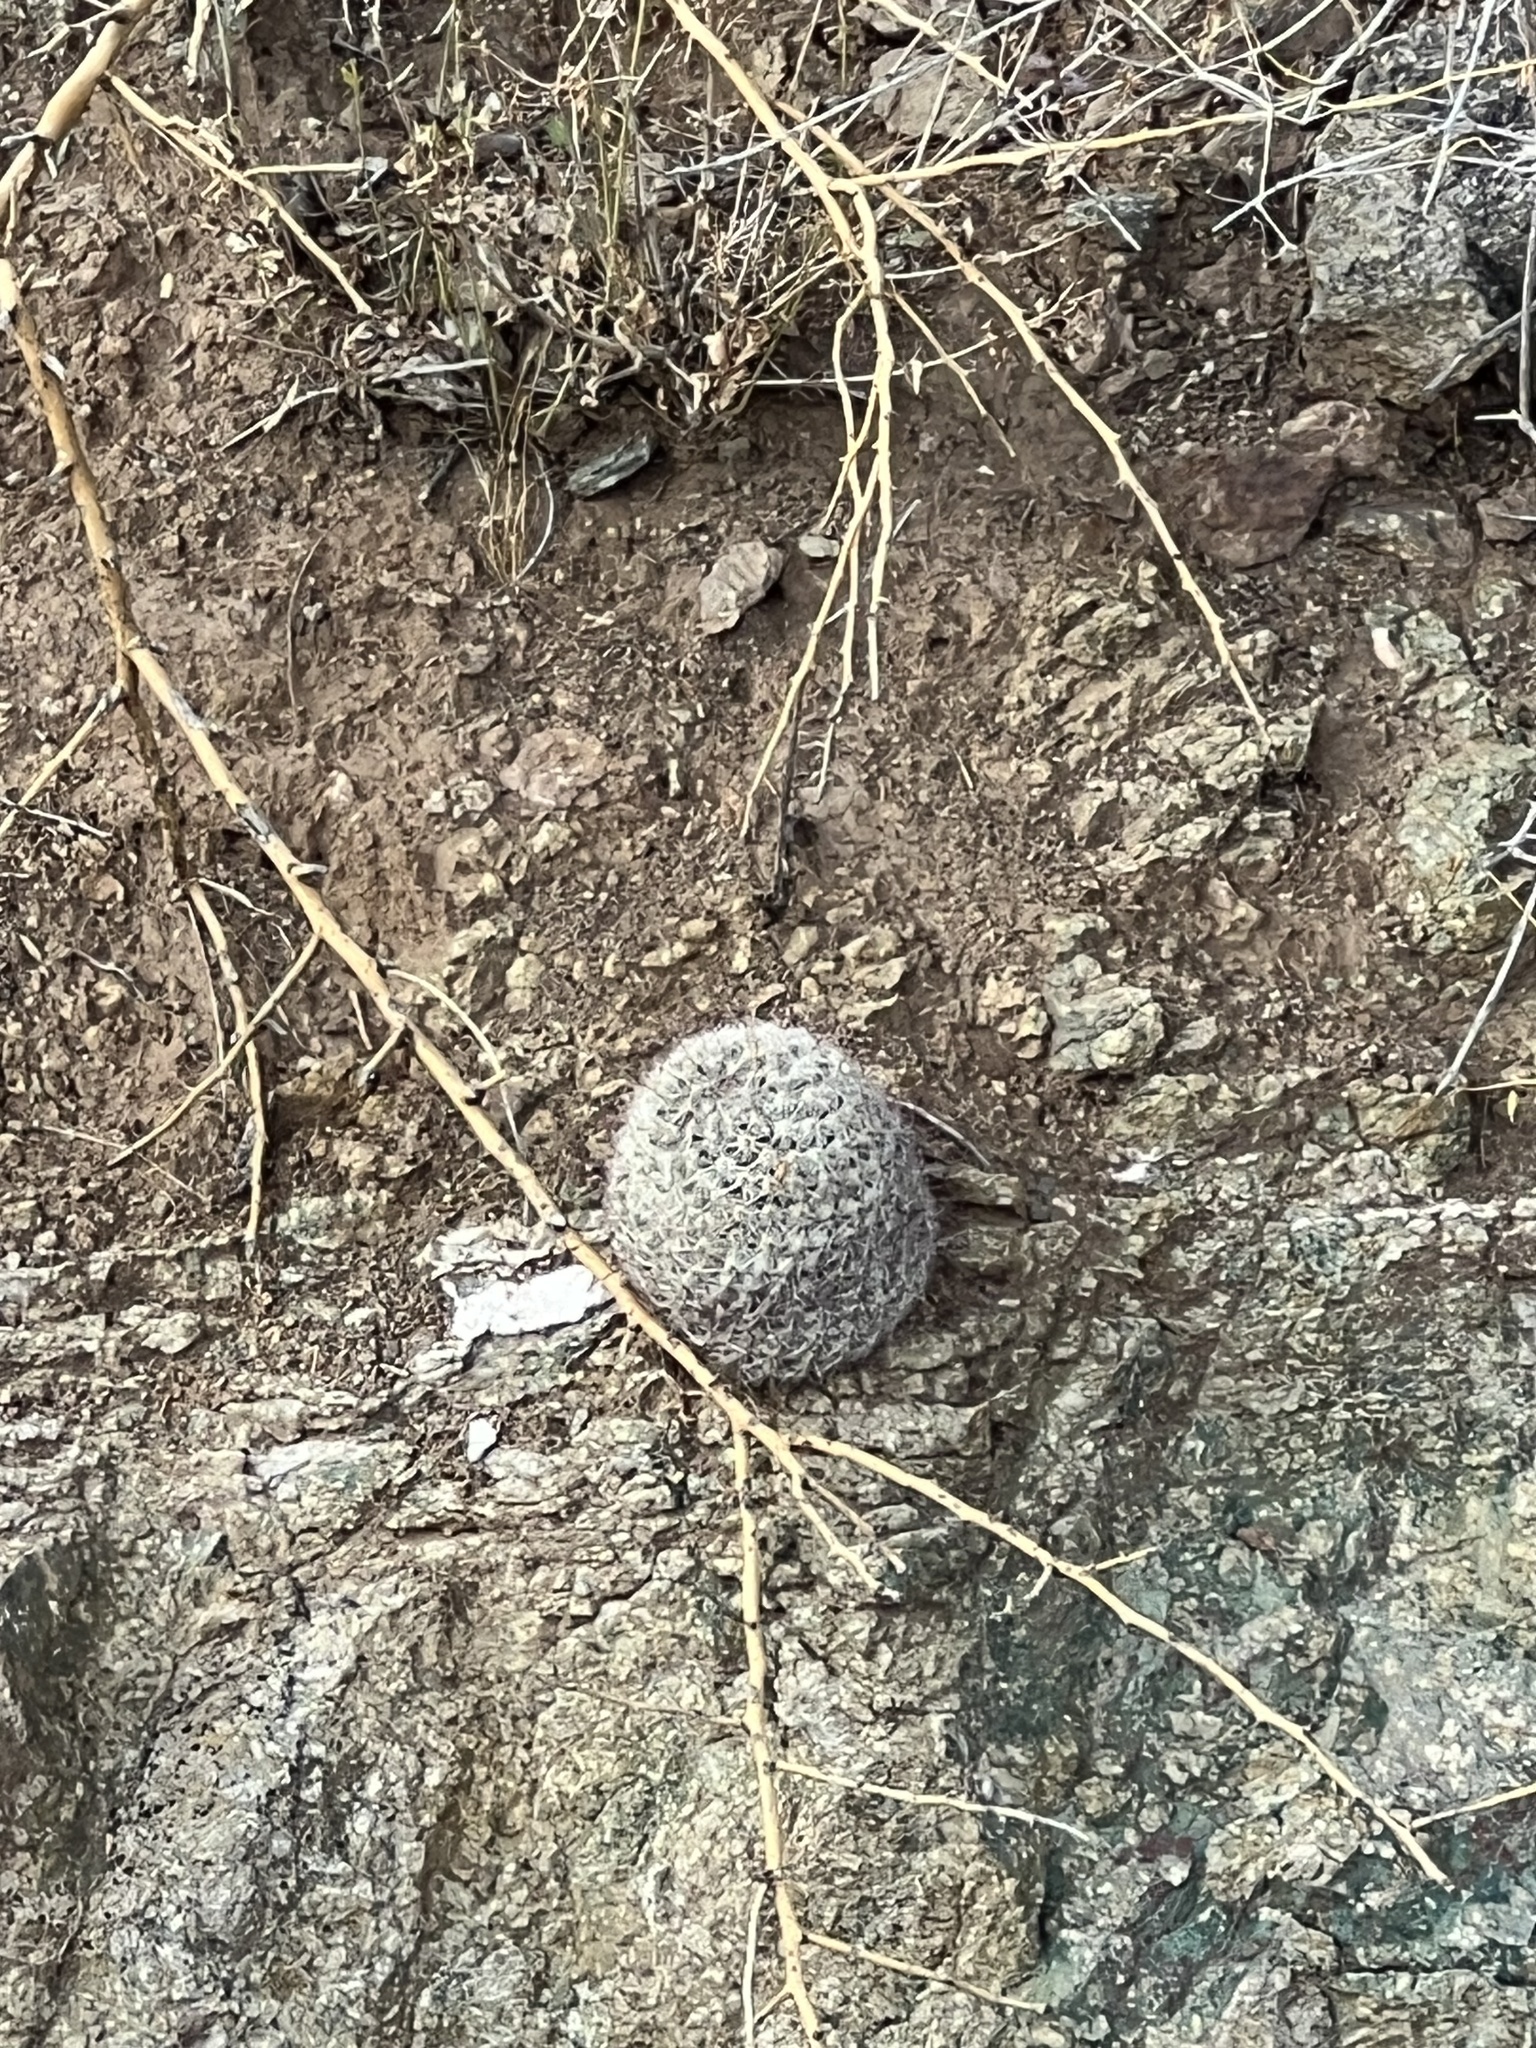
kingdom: Plantae
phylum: Tracheophyta
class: Magnoliopsida
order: Caryophyllales
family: Cactaceae
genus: Cochemiea
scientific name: Cochemiea grahamii
